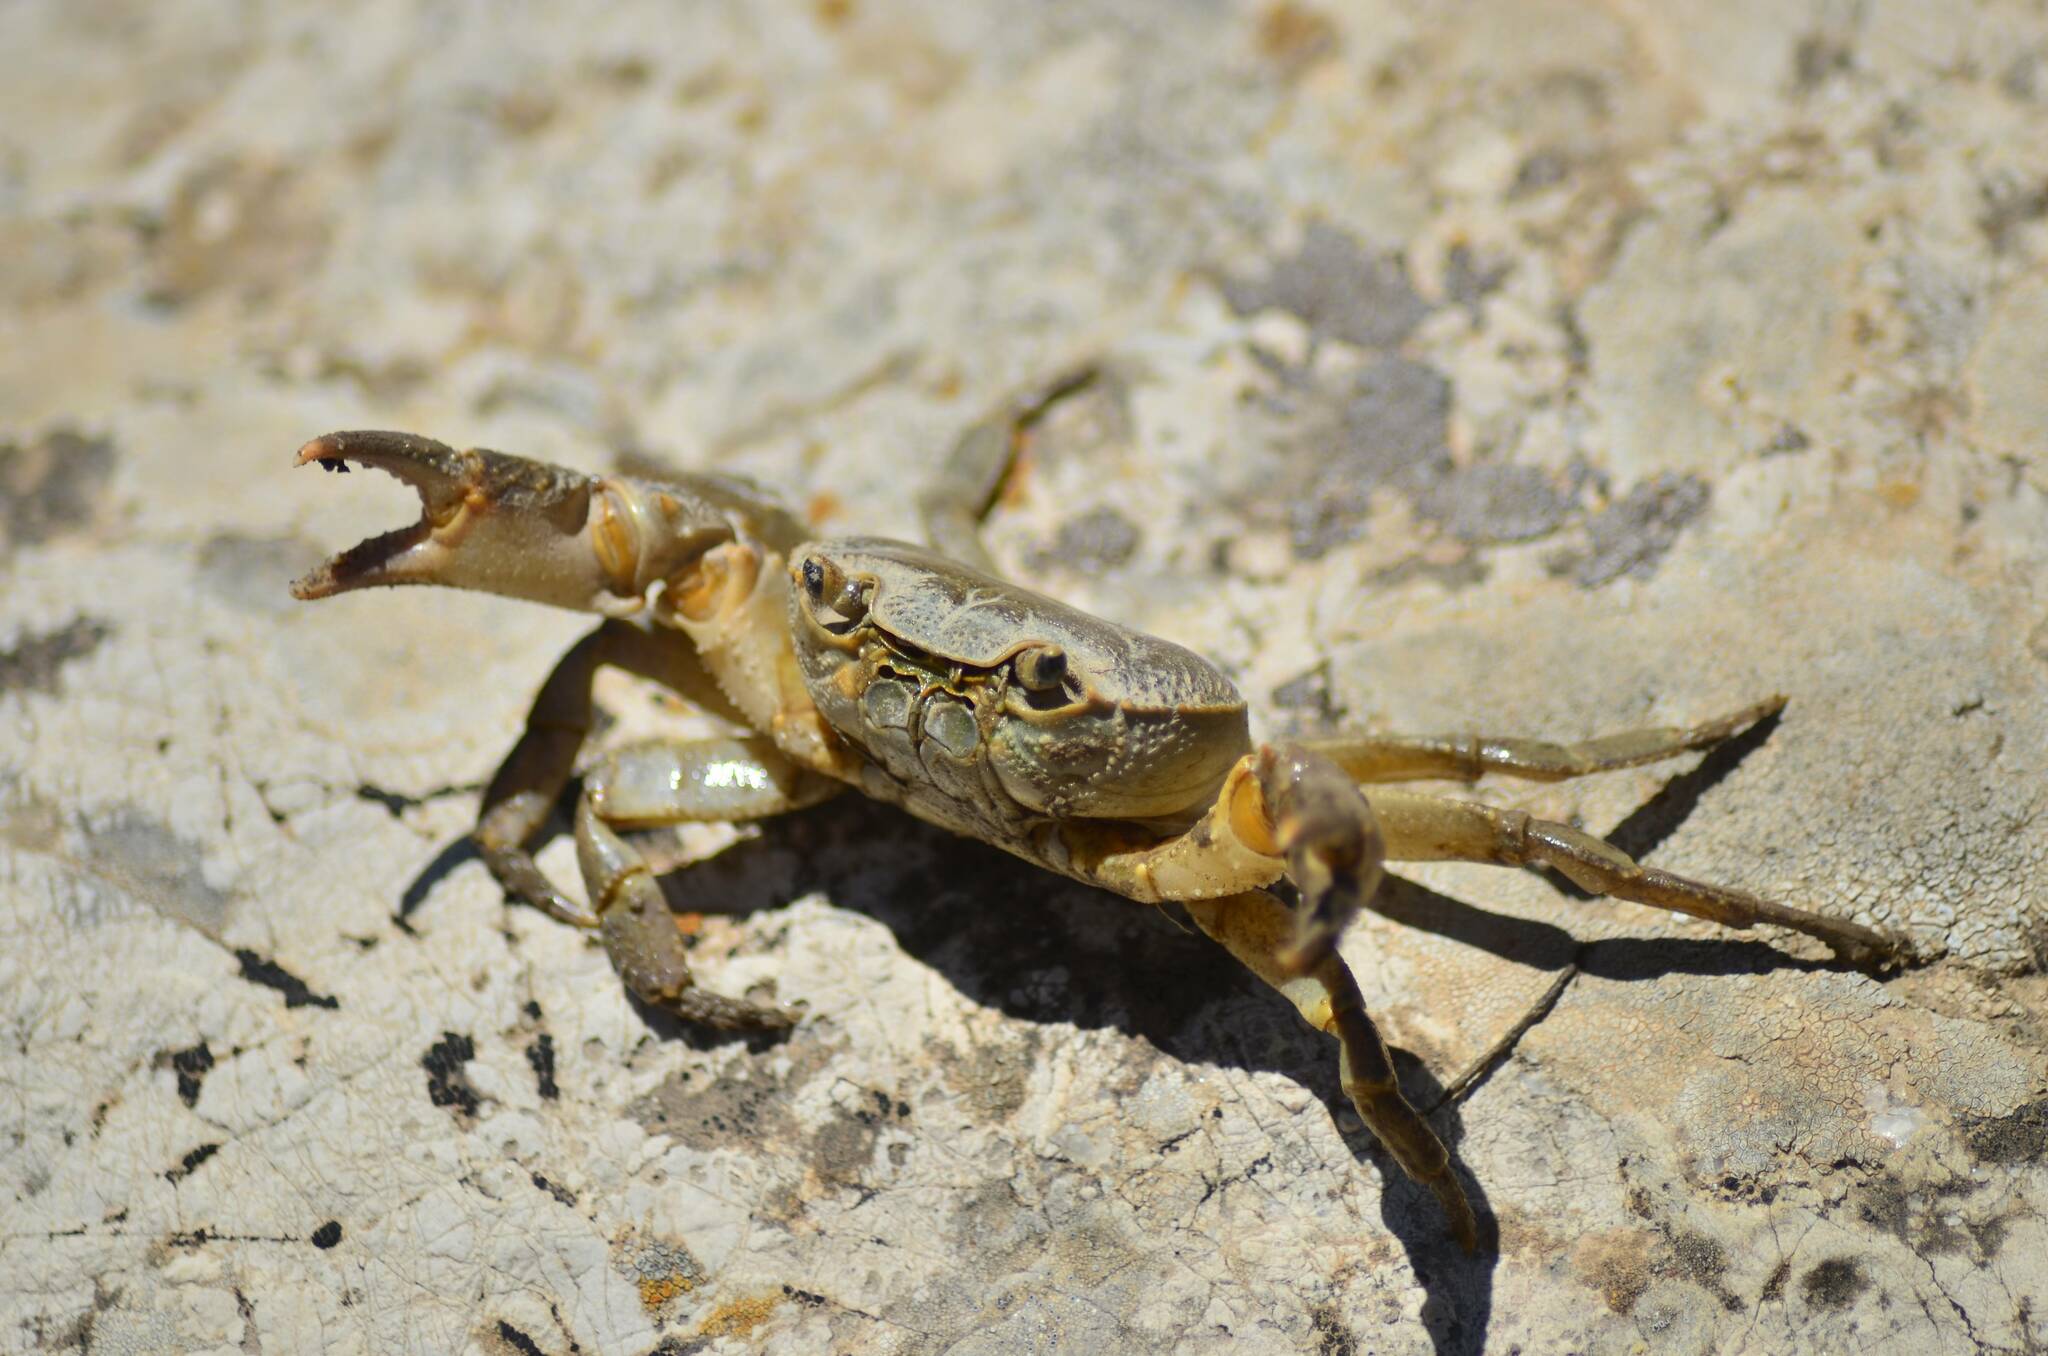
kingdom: Animalia
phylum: Arthropoda
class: Malacostraca
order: Decapoda
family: Potamidae
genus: Potamon
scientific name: Potamon algeriense
